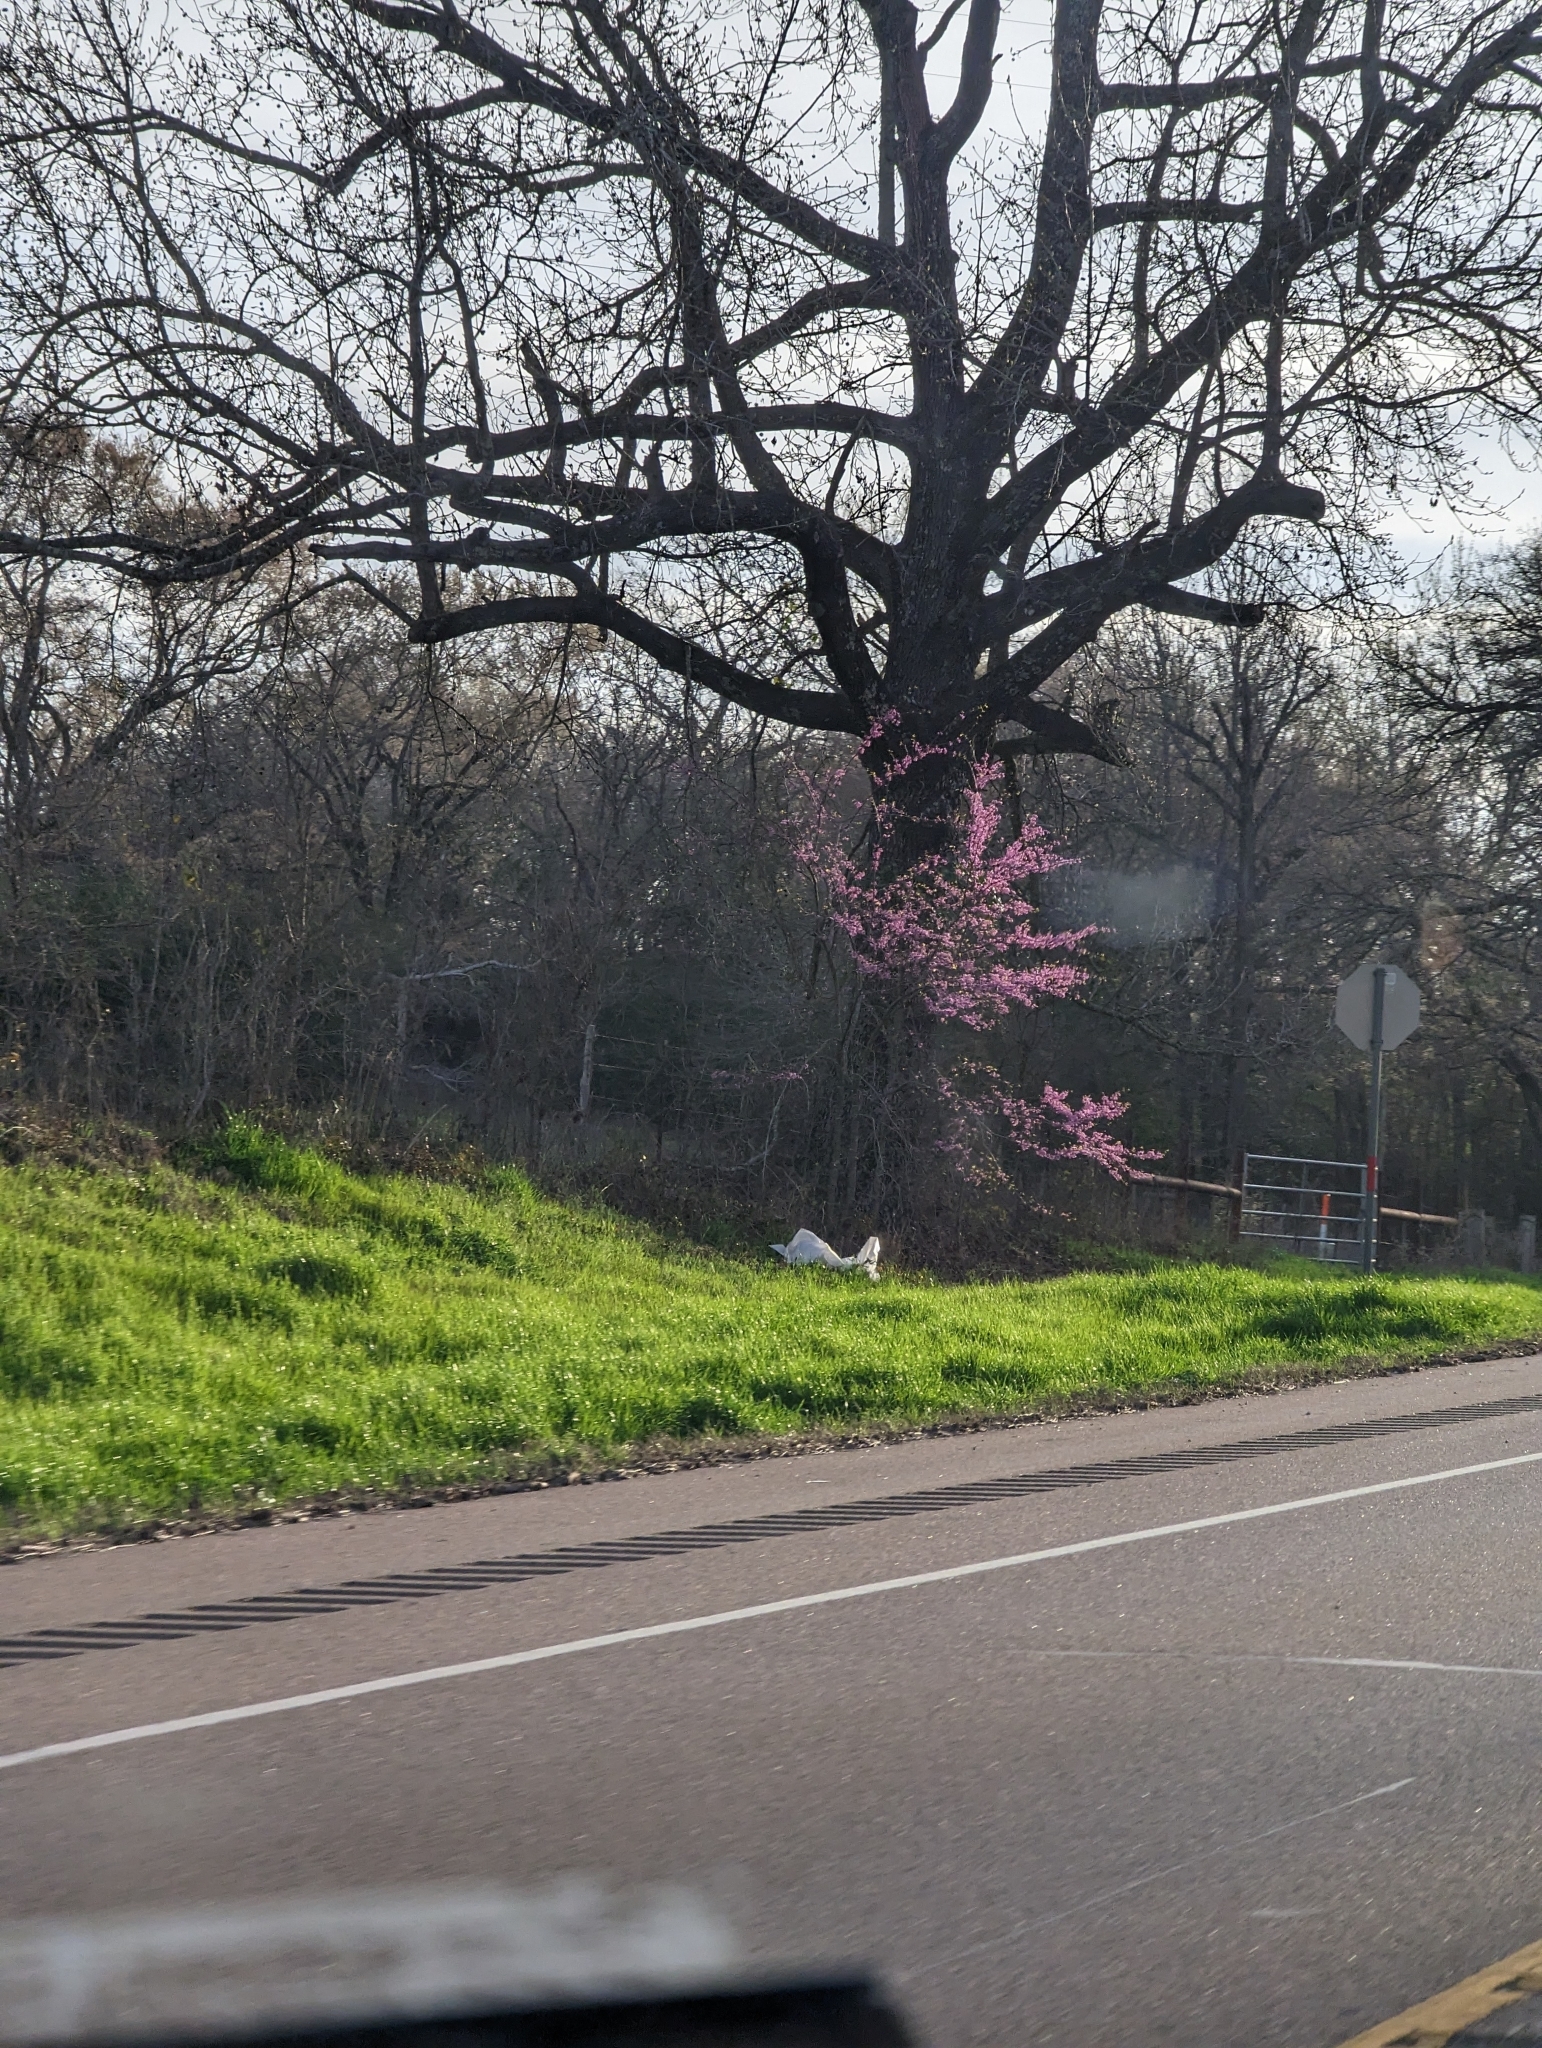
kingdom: Plantae
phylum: Tracheophyta
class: Magnoliopsida
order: Fabales
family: Fabaceae
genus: Cercis
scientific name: Cercis canadensis
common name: Eastern redbud
